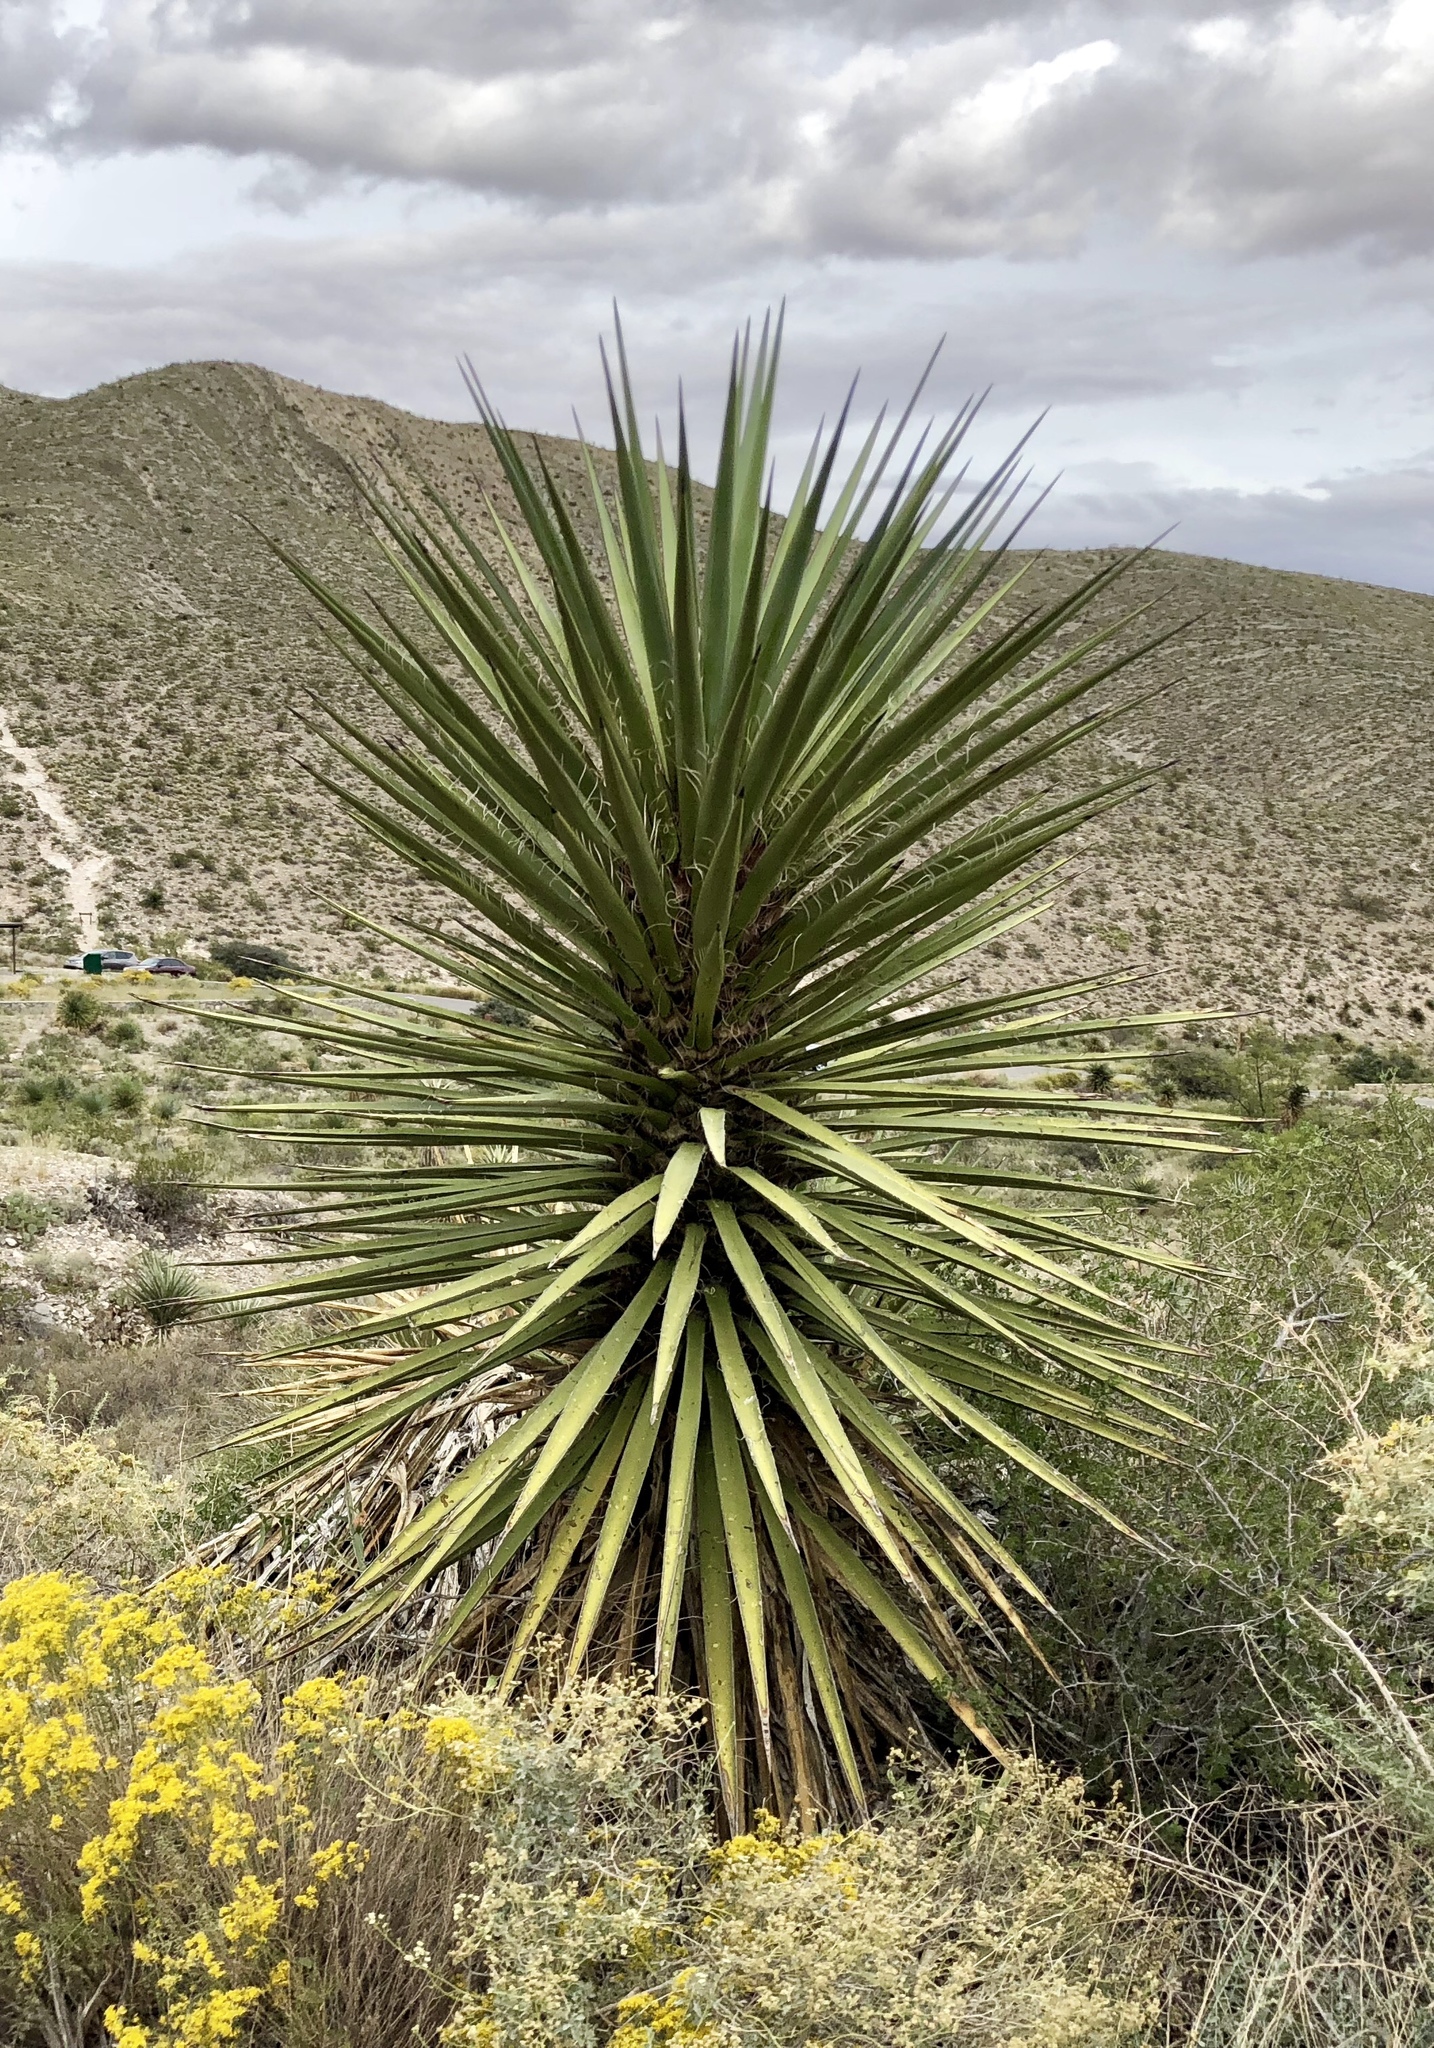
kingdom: Plantae
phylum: Tracheophyta
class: Liliopsida
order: Asparagales
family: Asparagaceae
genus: Yucca
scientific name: Yucca treculiana
